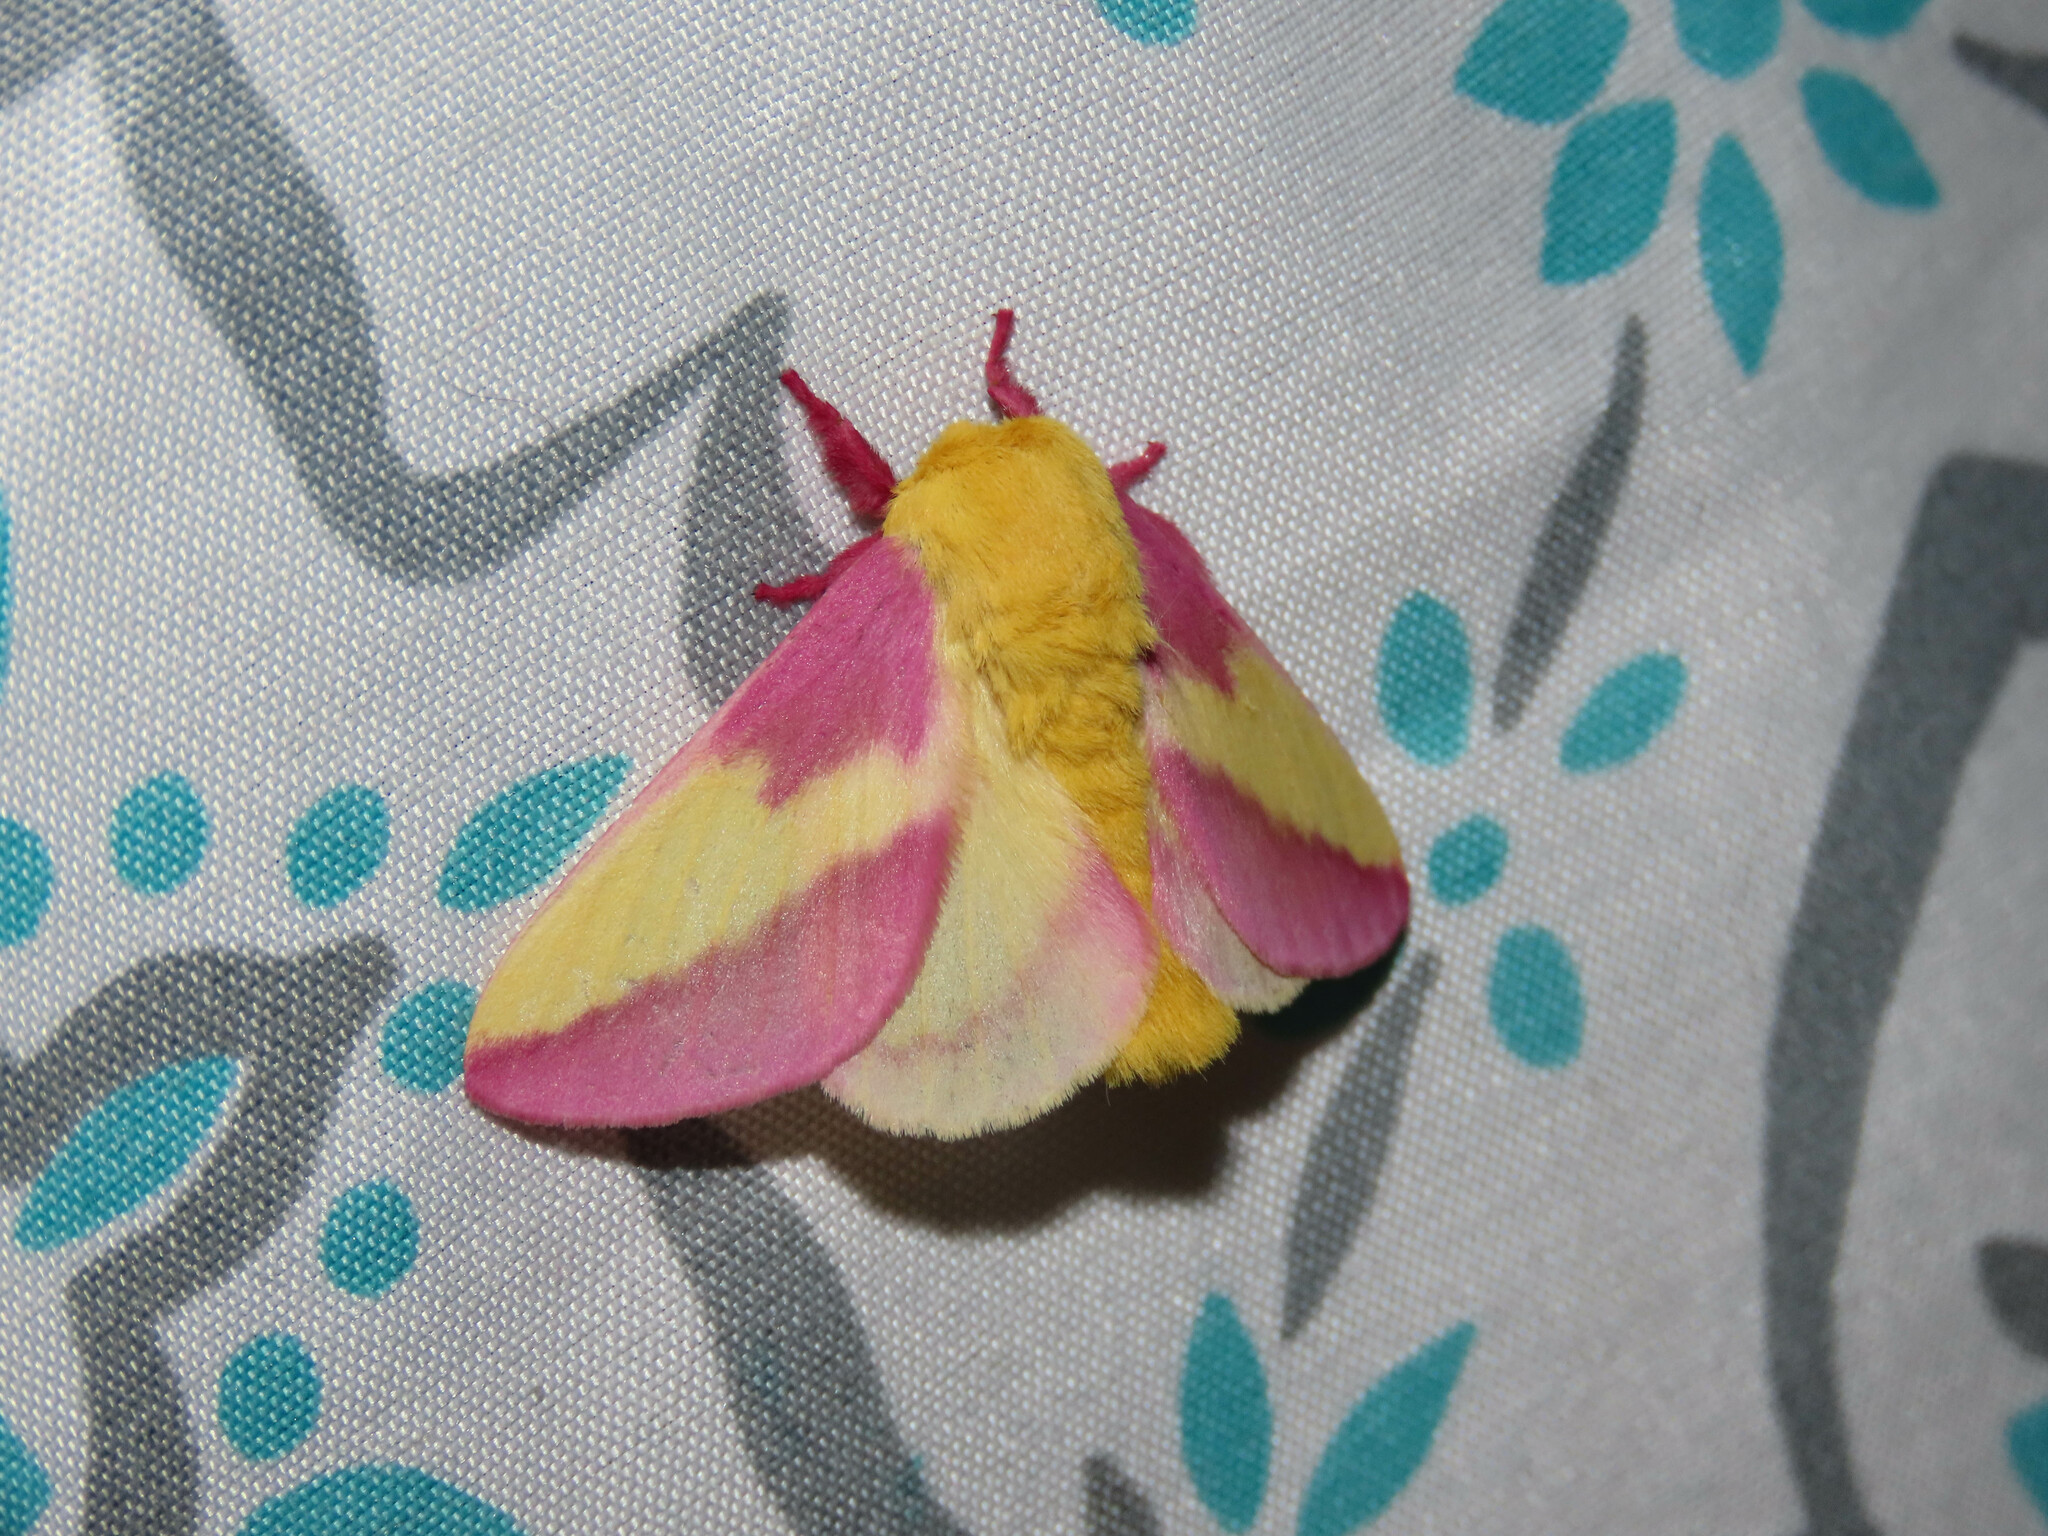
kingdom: Animalia
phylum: Arthropoda
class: Insecta
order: Lepidoptera
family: Saturniidae
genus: Dryocampa
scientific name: Dryocampa rubicunda
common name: Rosy maple moth
